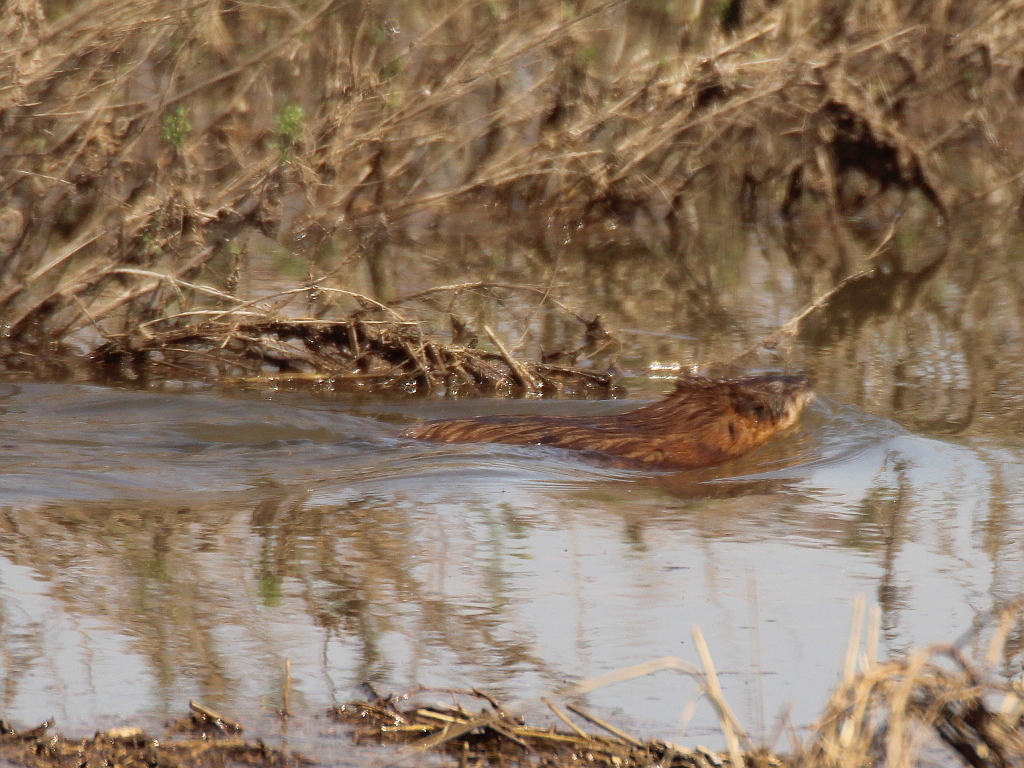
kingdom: Animalia
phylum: Chordata
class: Mammalia
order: Rodentia
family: Cricetidae
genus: Ondatra
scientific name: Ondatra zibethicus
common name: Muskrat
